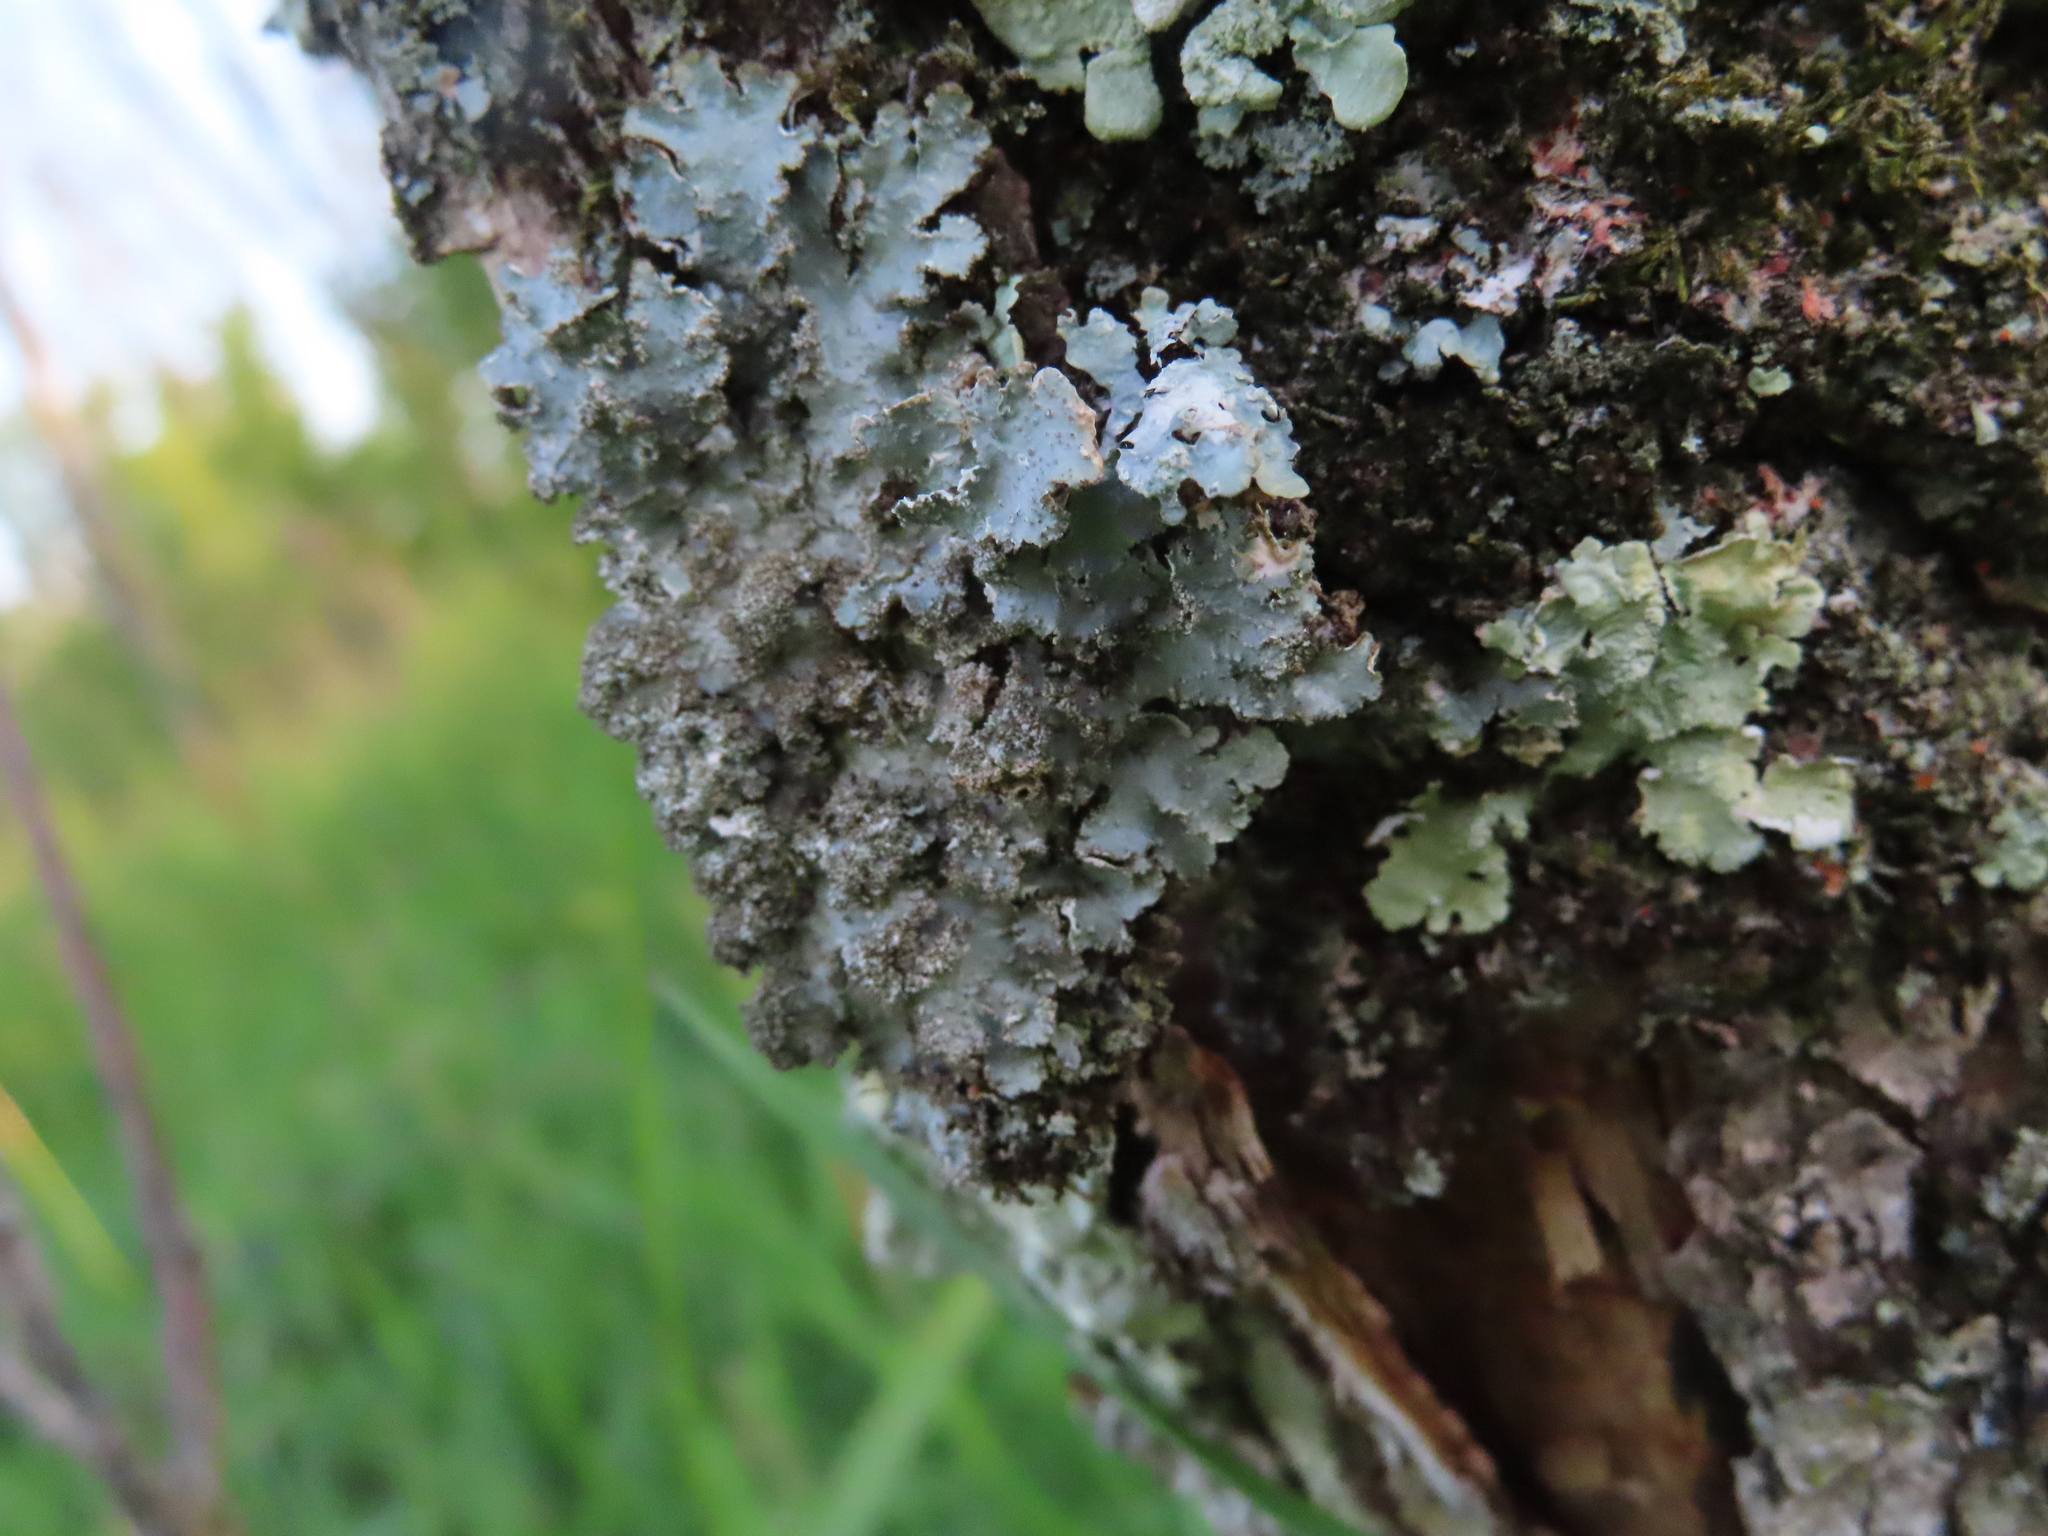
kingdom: Fungi
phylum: Ascomycota
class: Lecanoromycetes
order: Lecanorales
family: Parmeliaceae
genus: Punctelia
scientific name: Punctelia rudecta
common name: Rough speckled shield lichen
